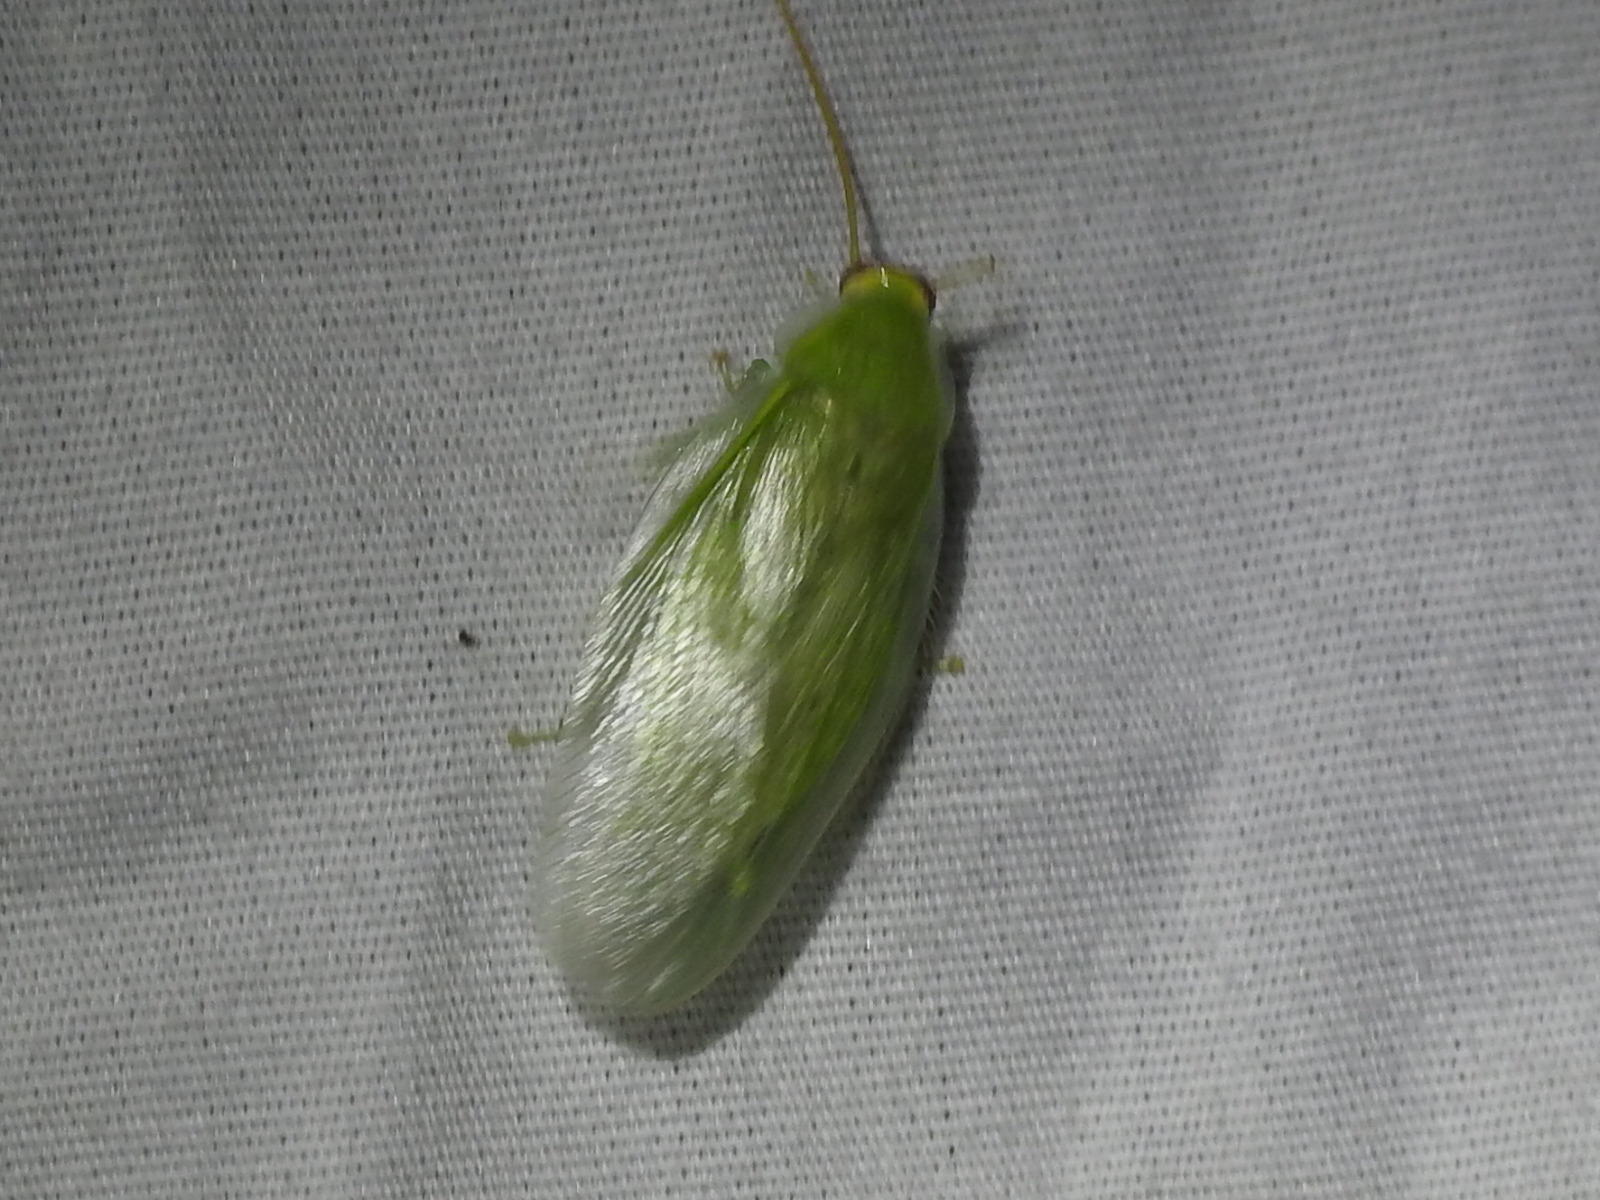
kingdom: Animalia
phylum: Arthropoda
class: Insecta
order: Blattodea
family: Blaberidae
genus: Panchlora
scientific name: Panchlora nivea
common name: Cuban cockroach
